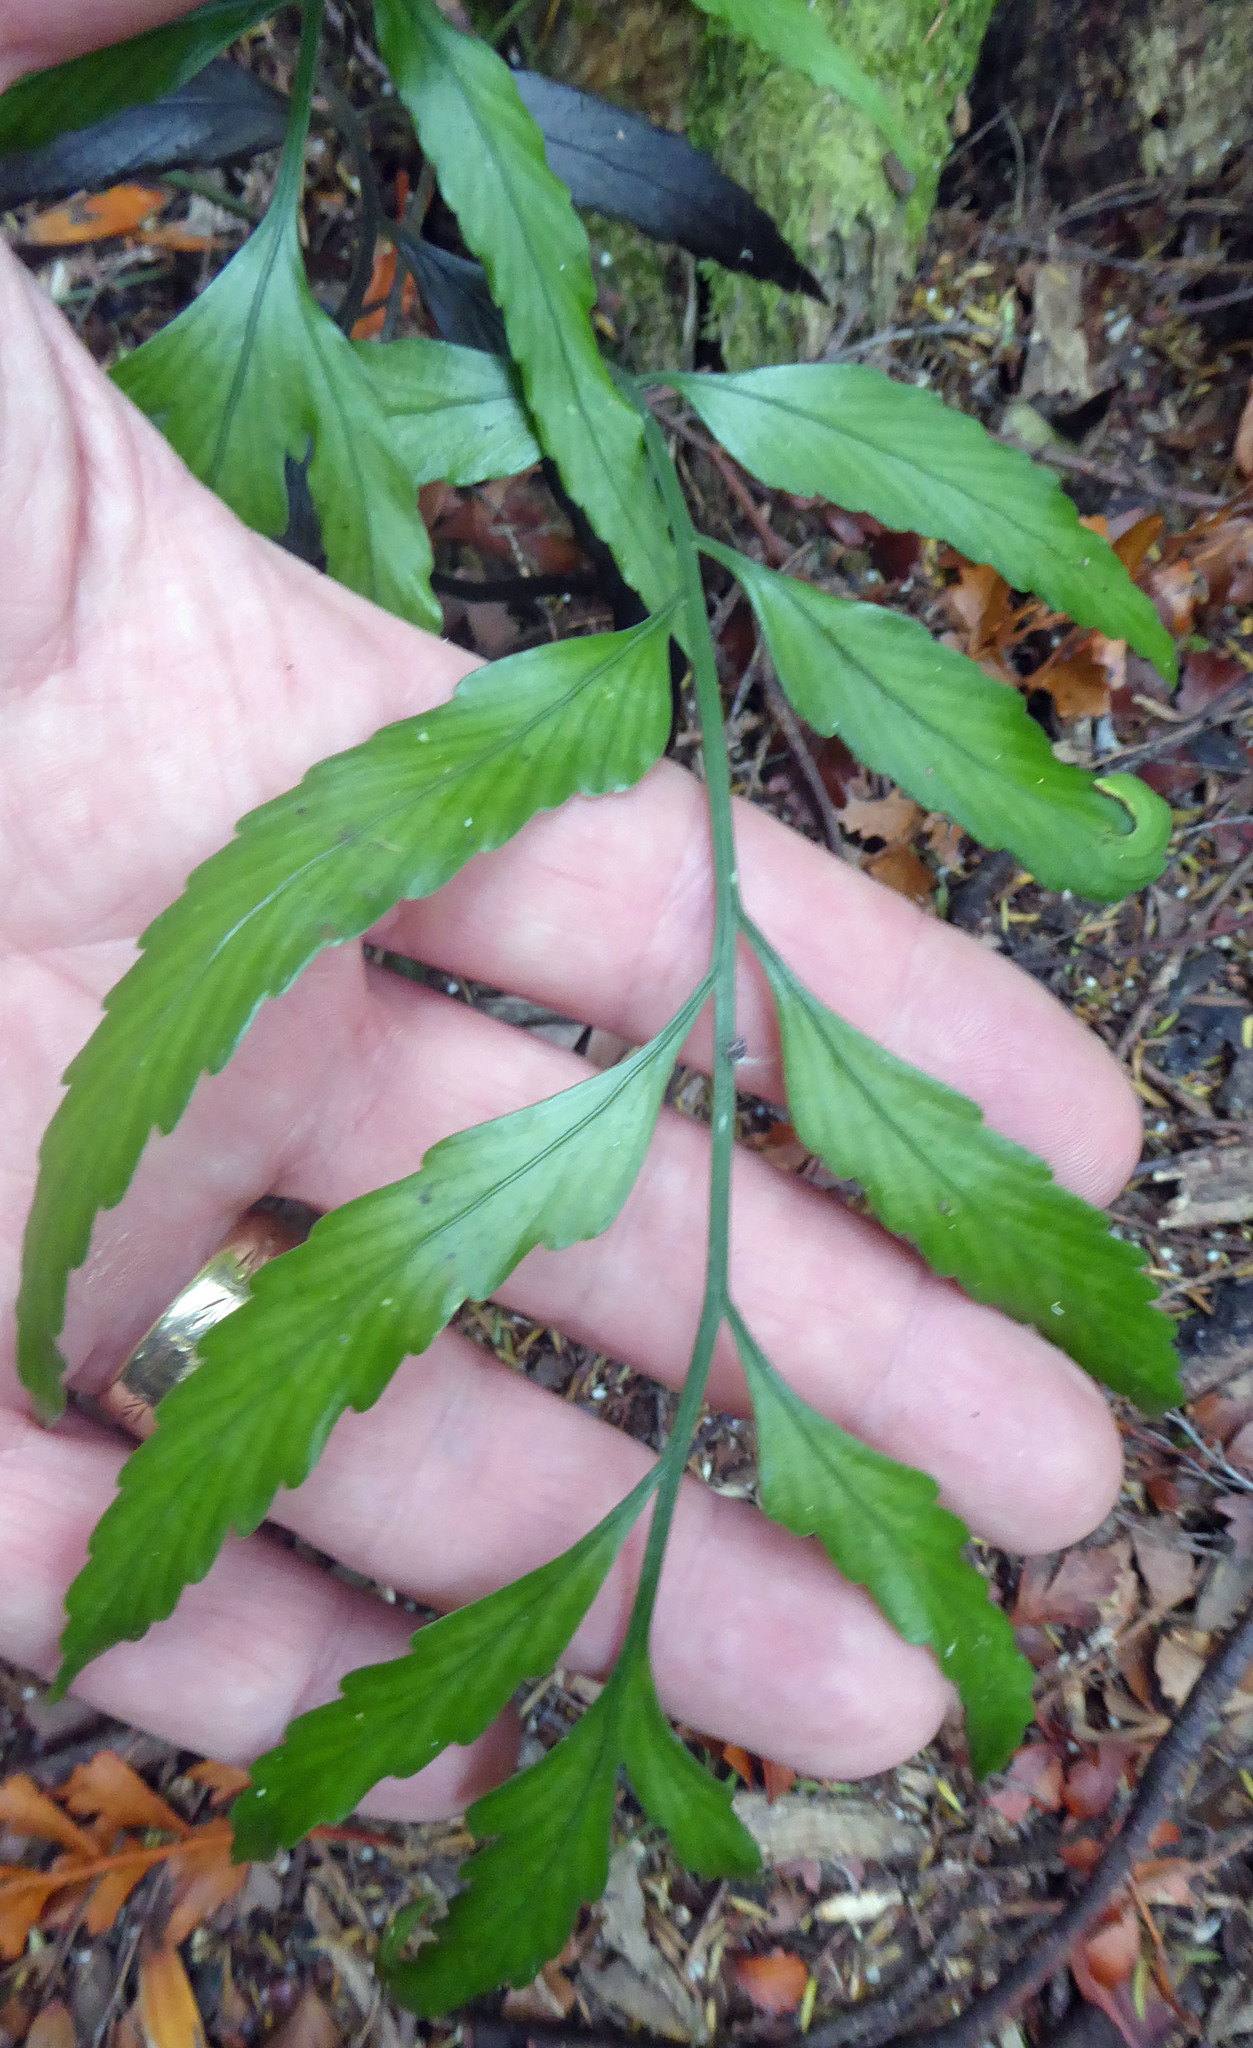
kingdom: Plantae
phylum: Tracheophyta
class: Polypodiopsida
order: Polypodiales
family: Aspleniaceae
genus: Asplenium
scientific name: Asplenium
